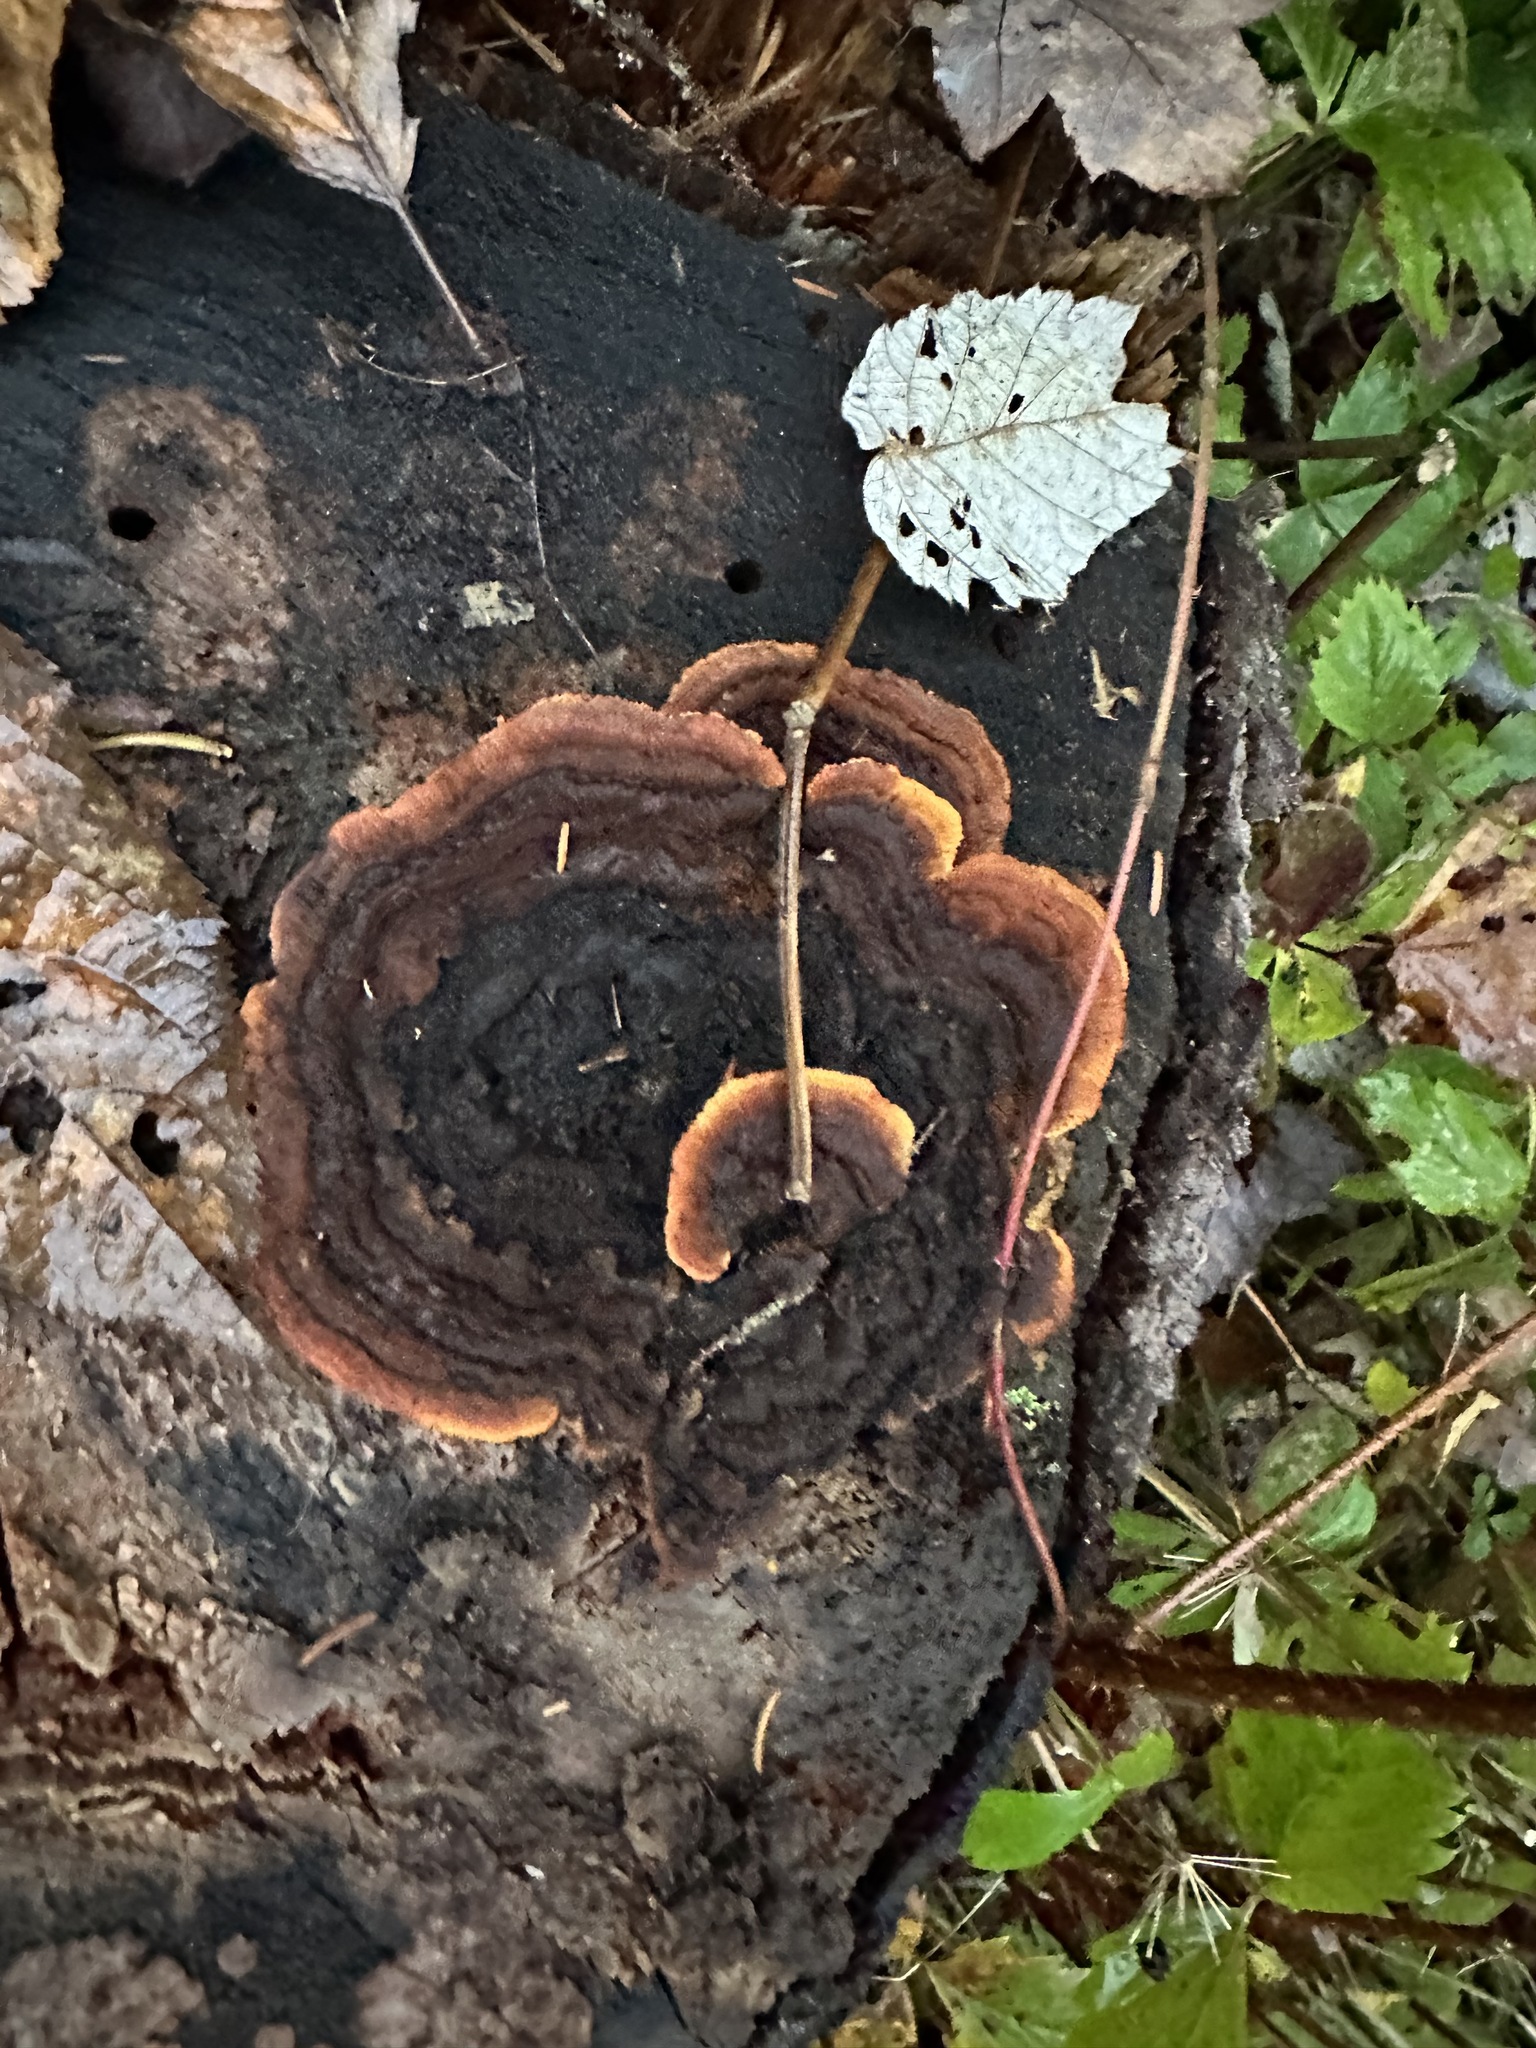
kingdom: Fungi
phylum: Basidiomycota
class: Agaricomycetes
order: Gloeophyllales
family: Gloeophyllaceae
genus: Gloeophyllum
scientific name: Gloeophyllum sepiarium
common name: Conifer mazegill
